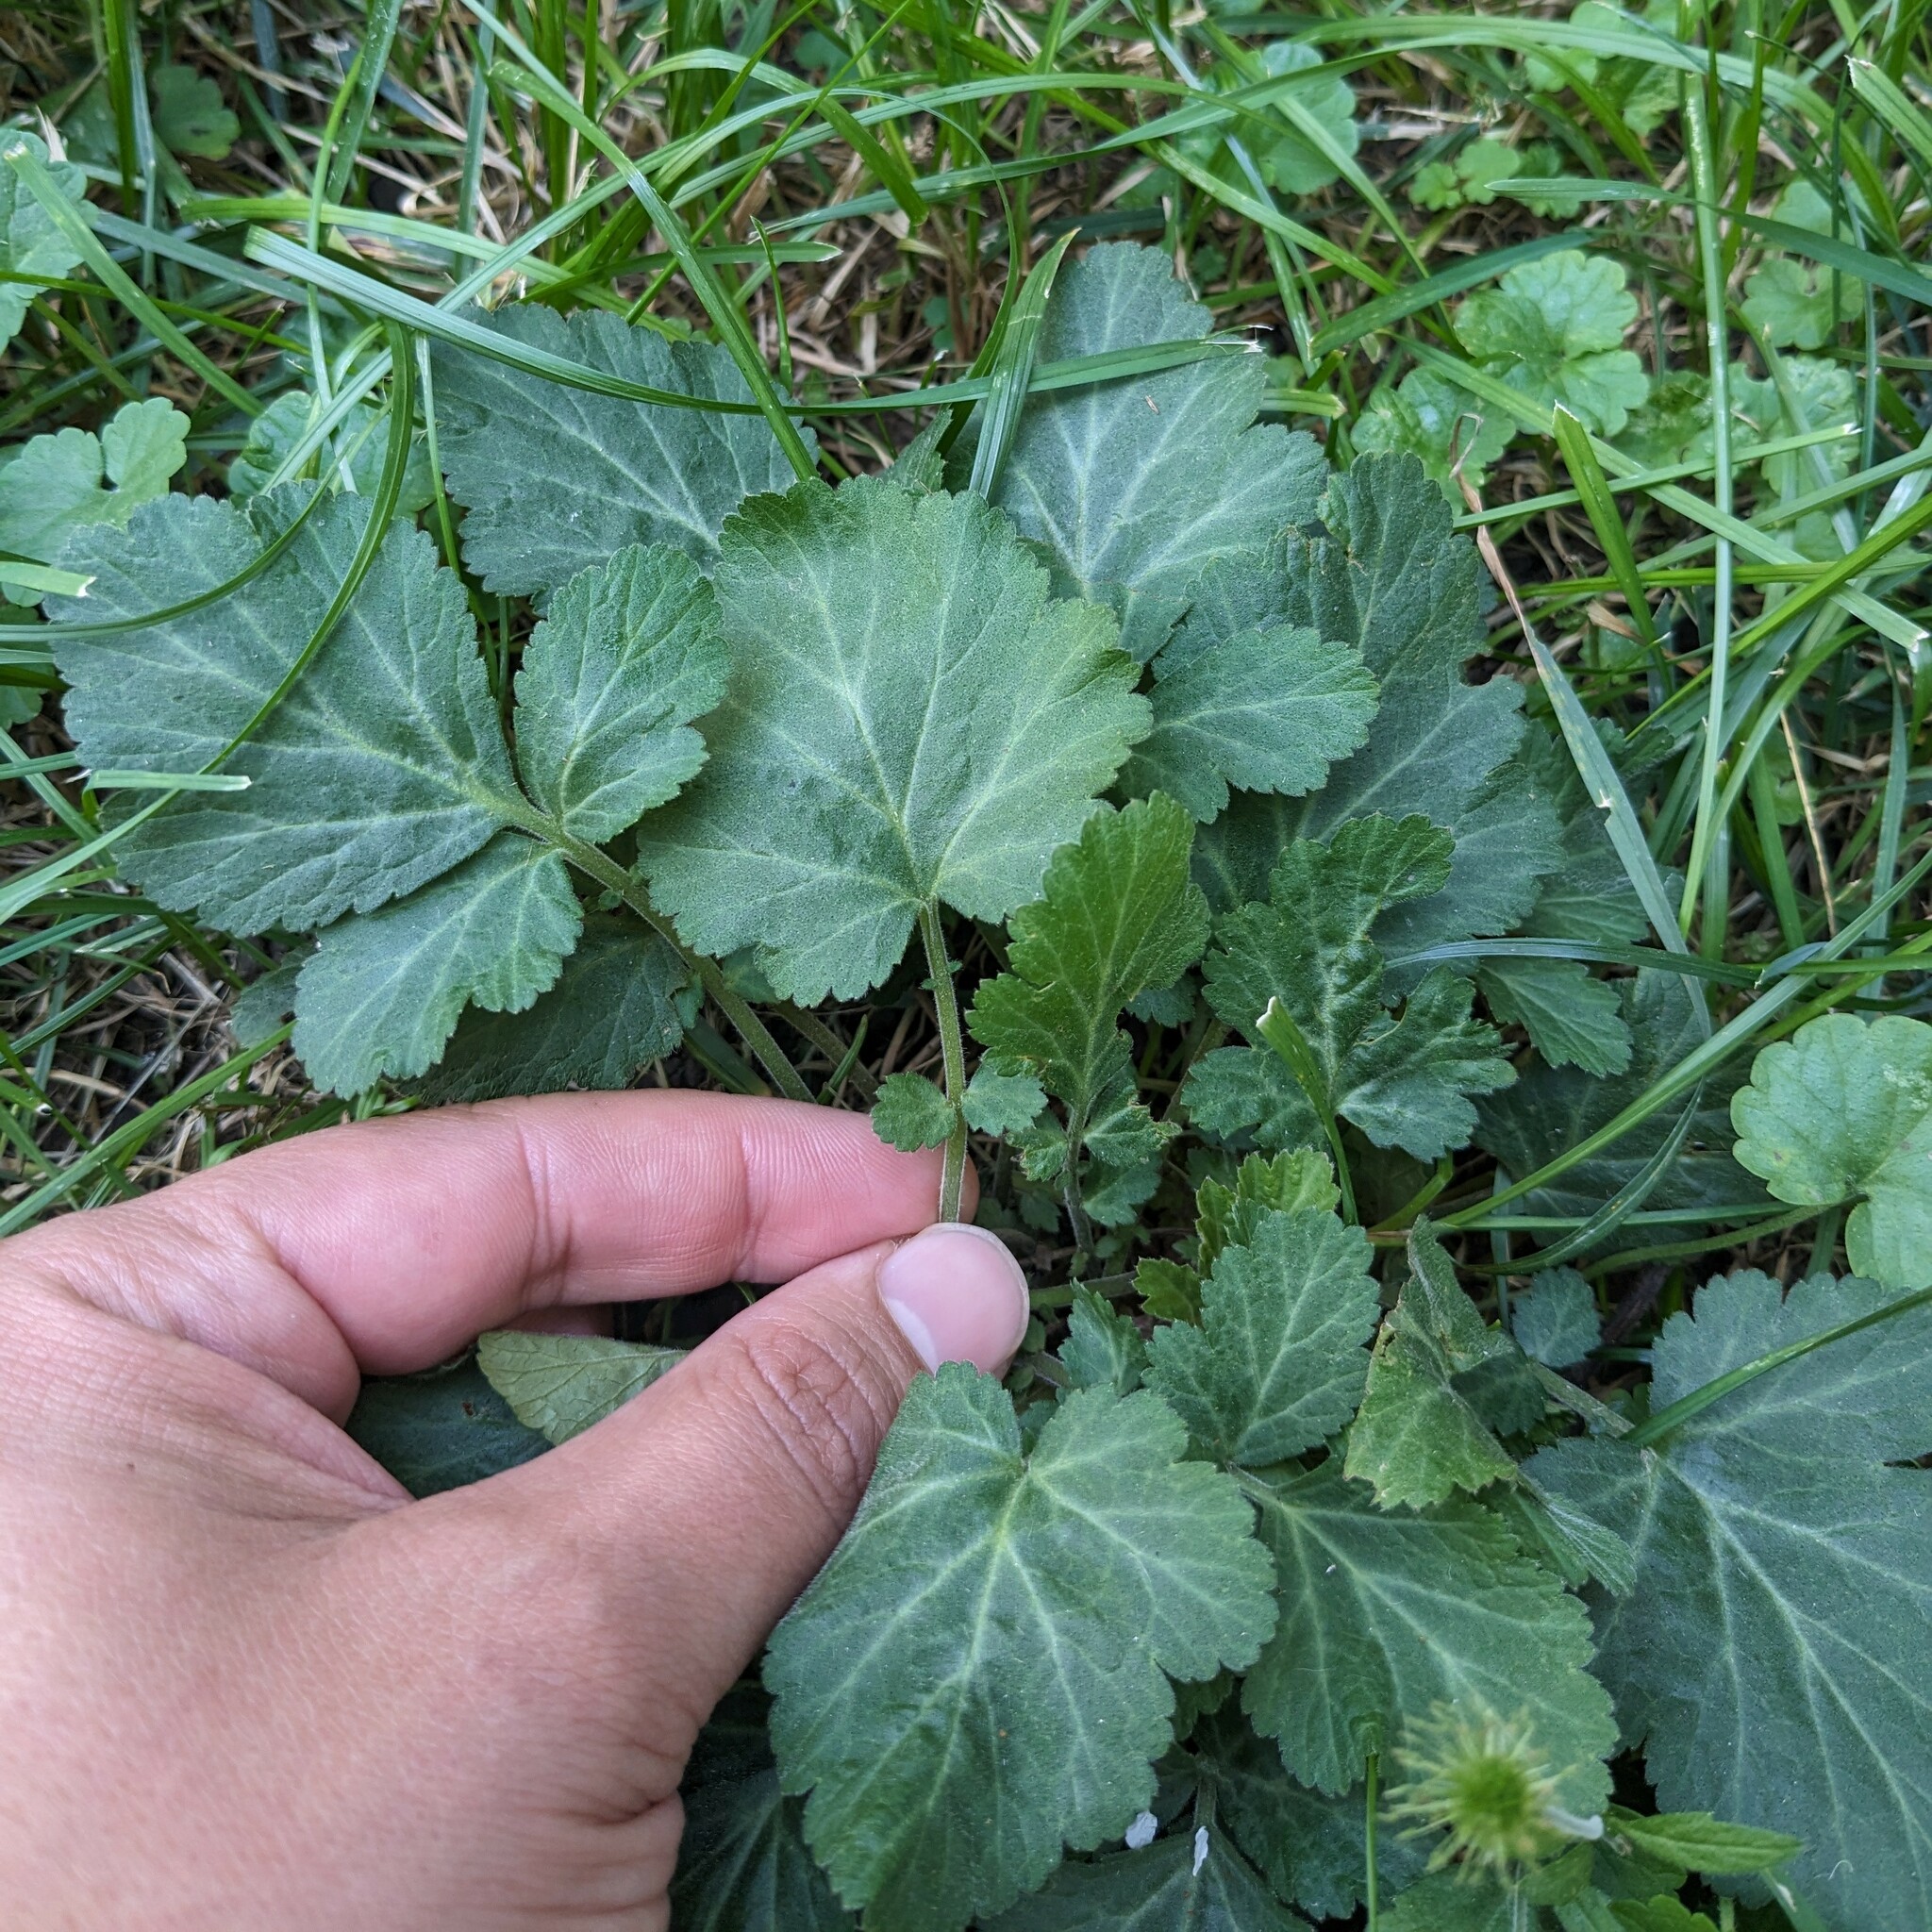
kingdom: Plantae
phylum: Tracheophyta
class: Magnoliopsida
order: Rosales
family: Rosaceae
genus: Geum
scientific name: Geum canadense
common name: White avens
